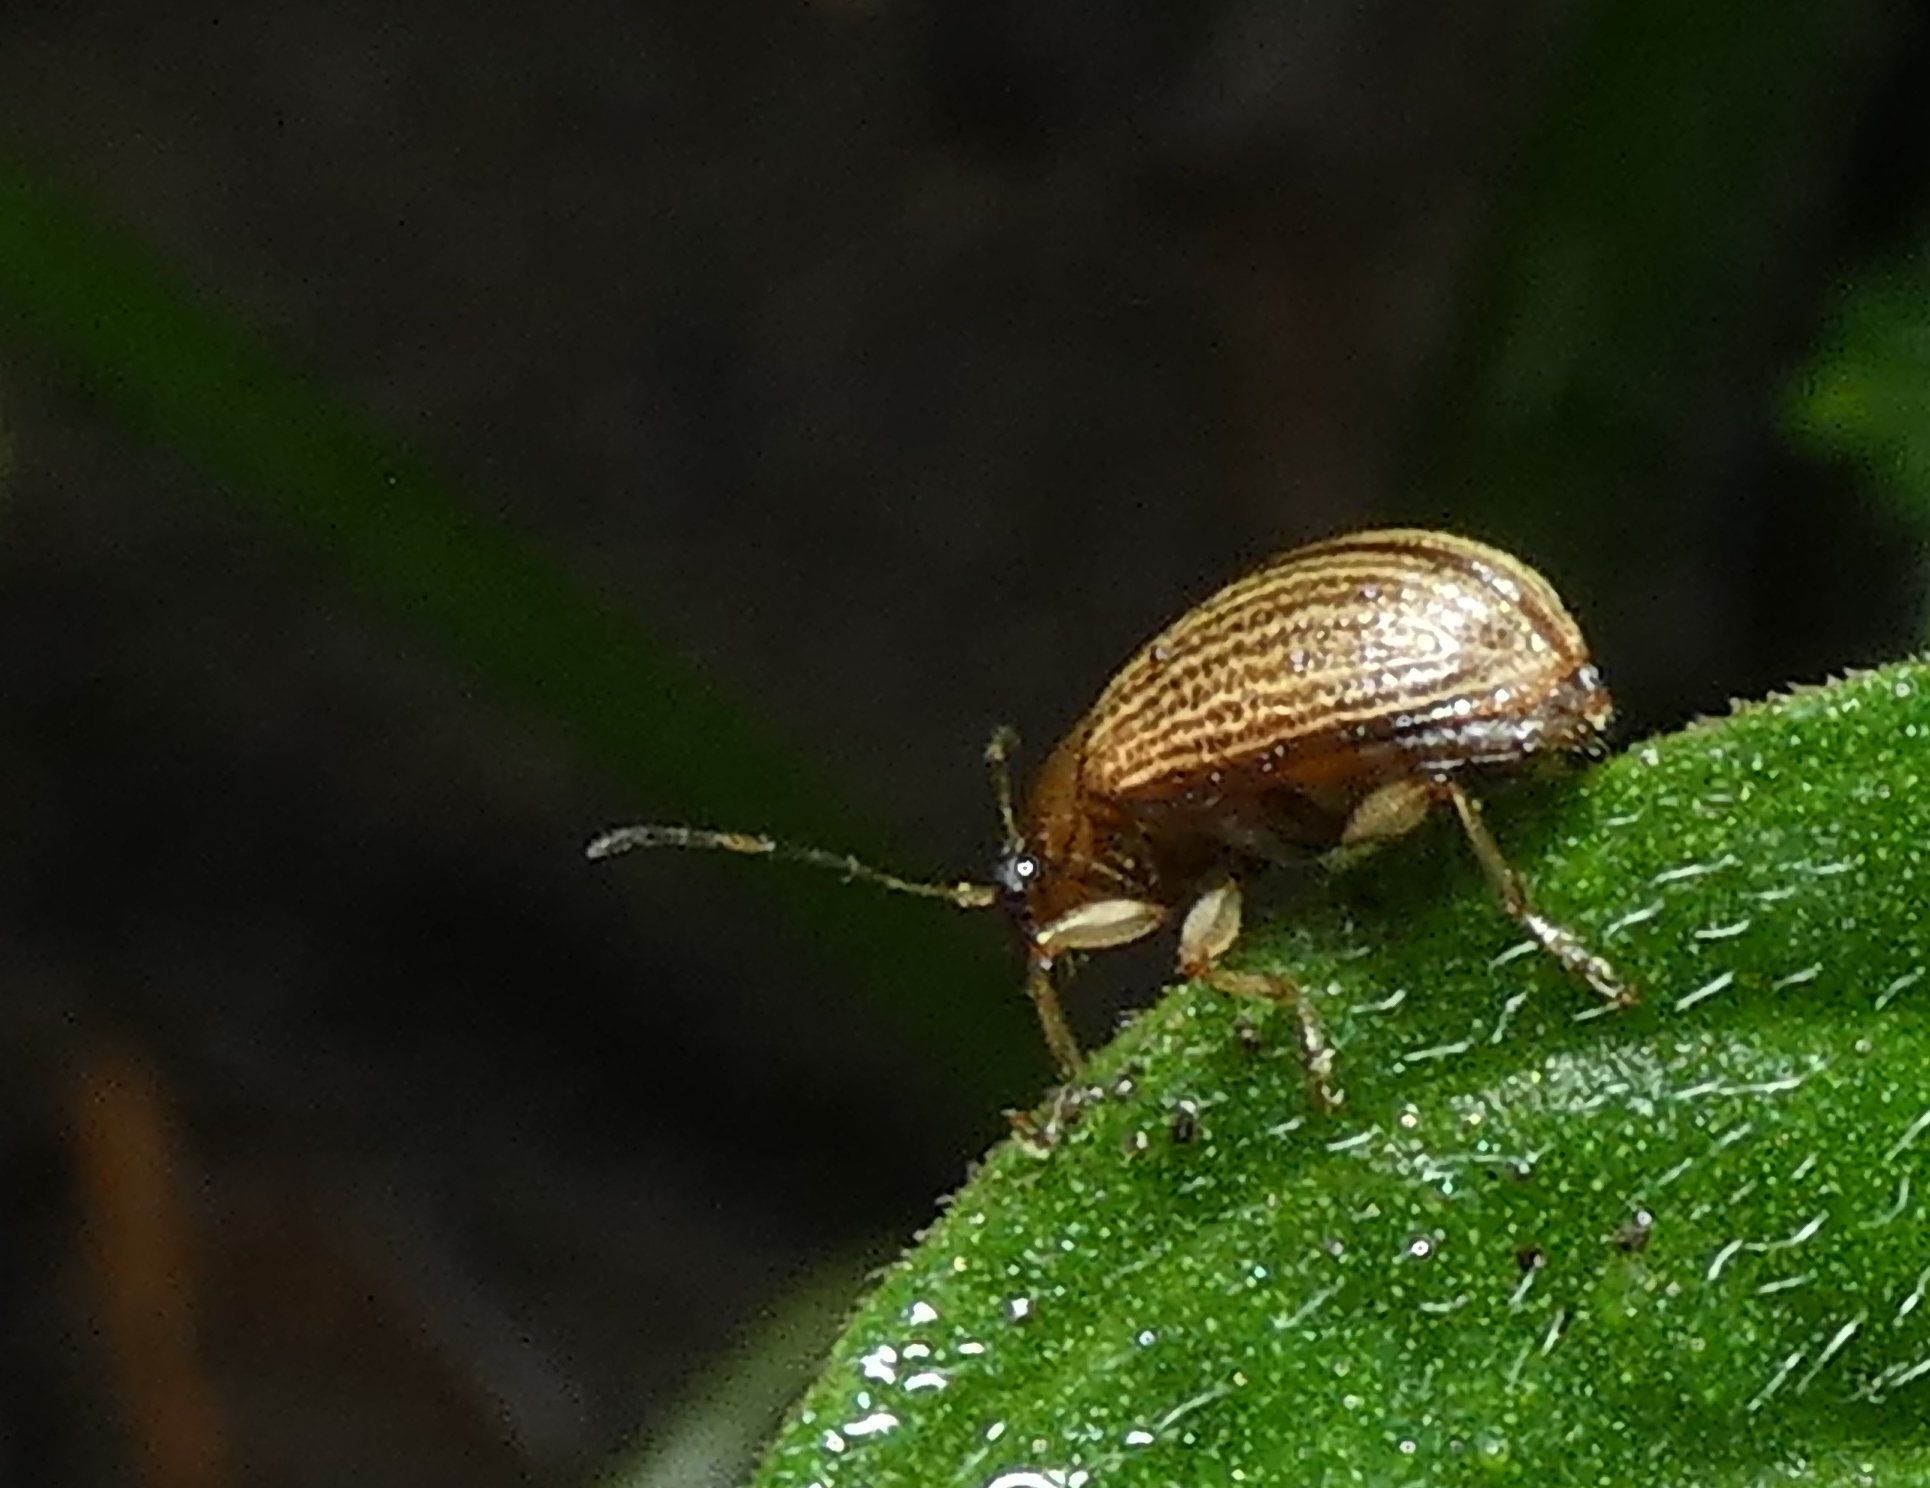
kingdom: Animalia
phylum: Arthropoda
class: Insecta
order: Coleoptera
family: Chrysomelidae
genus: Anisodera
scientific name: Anisodera ferruginea
